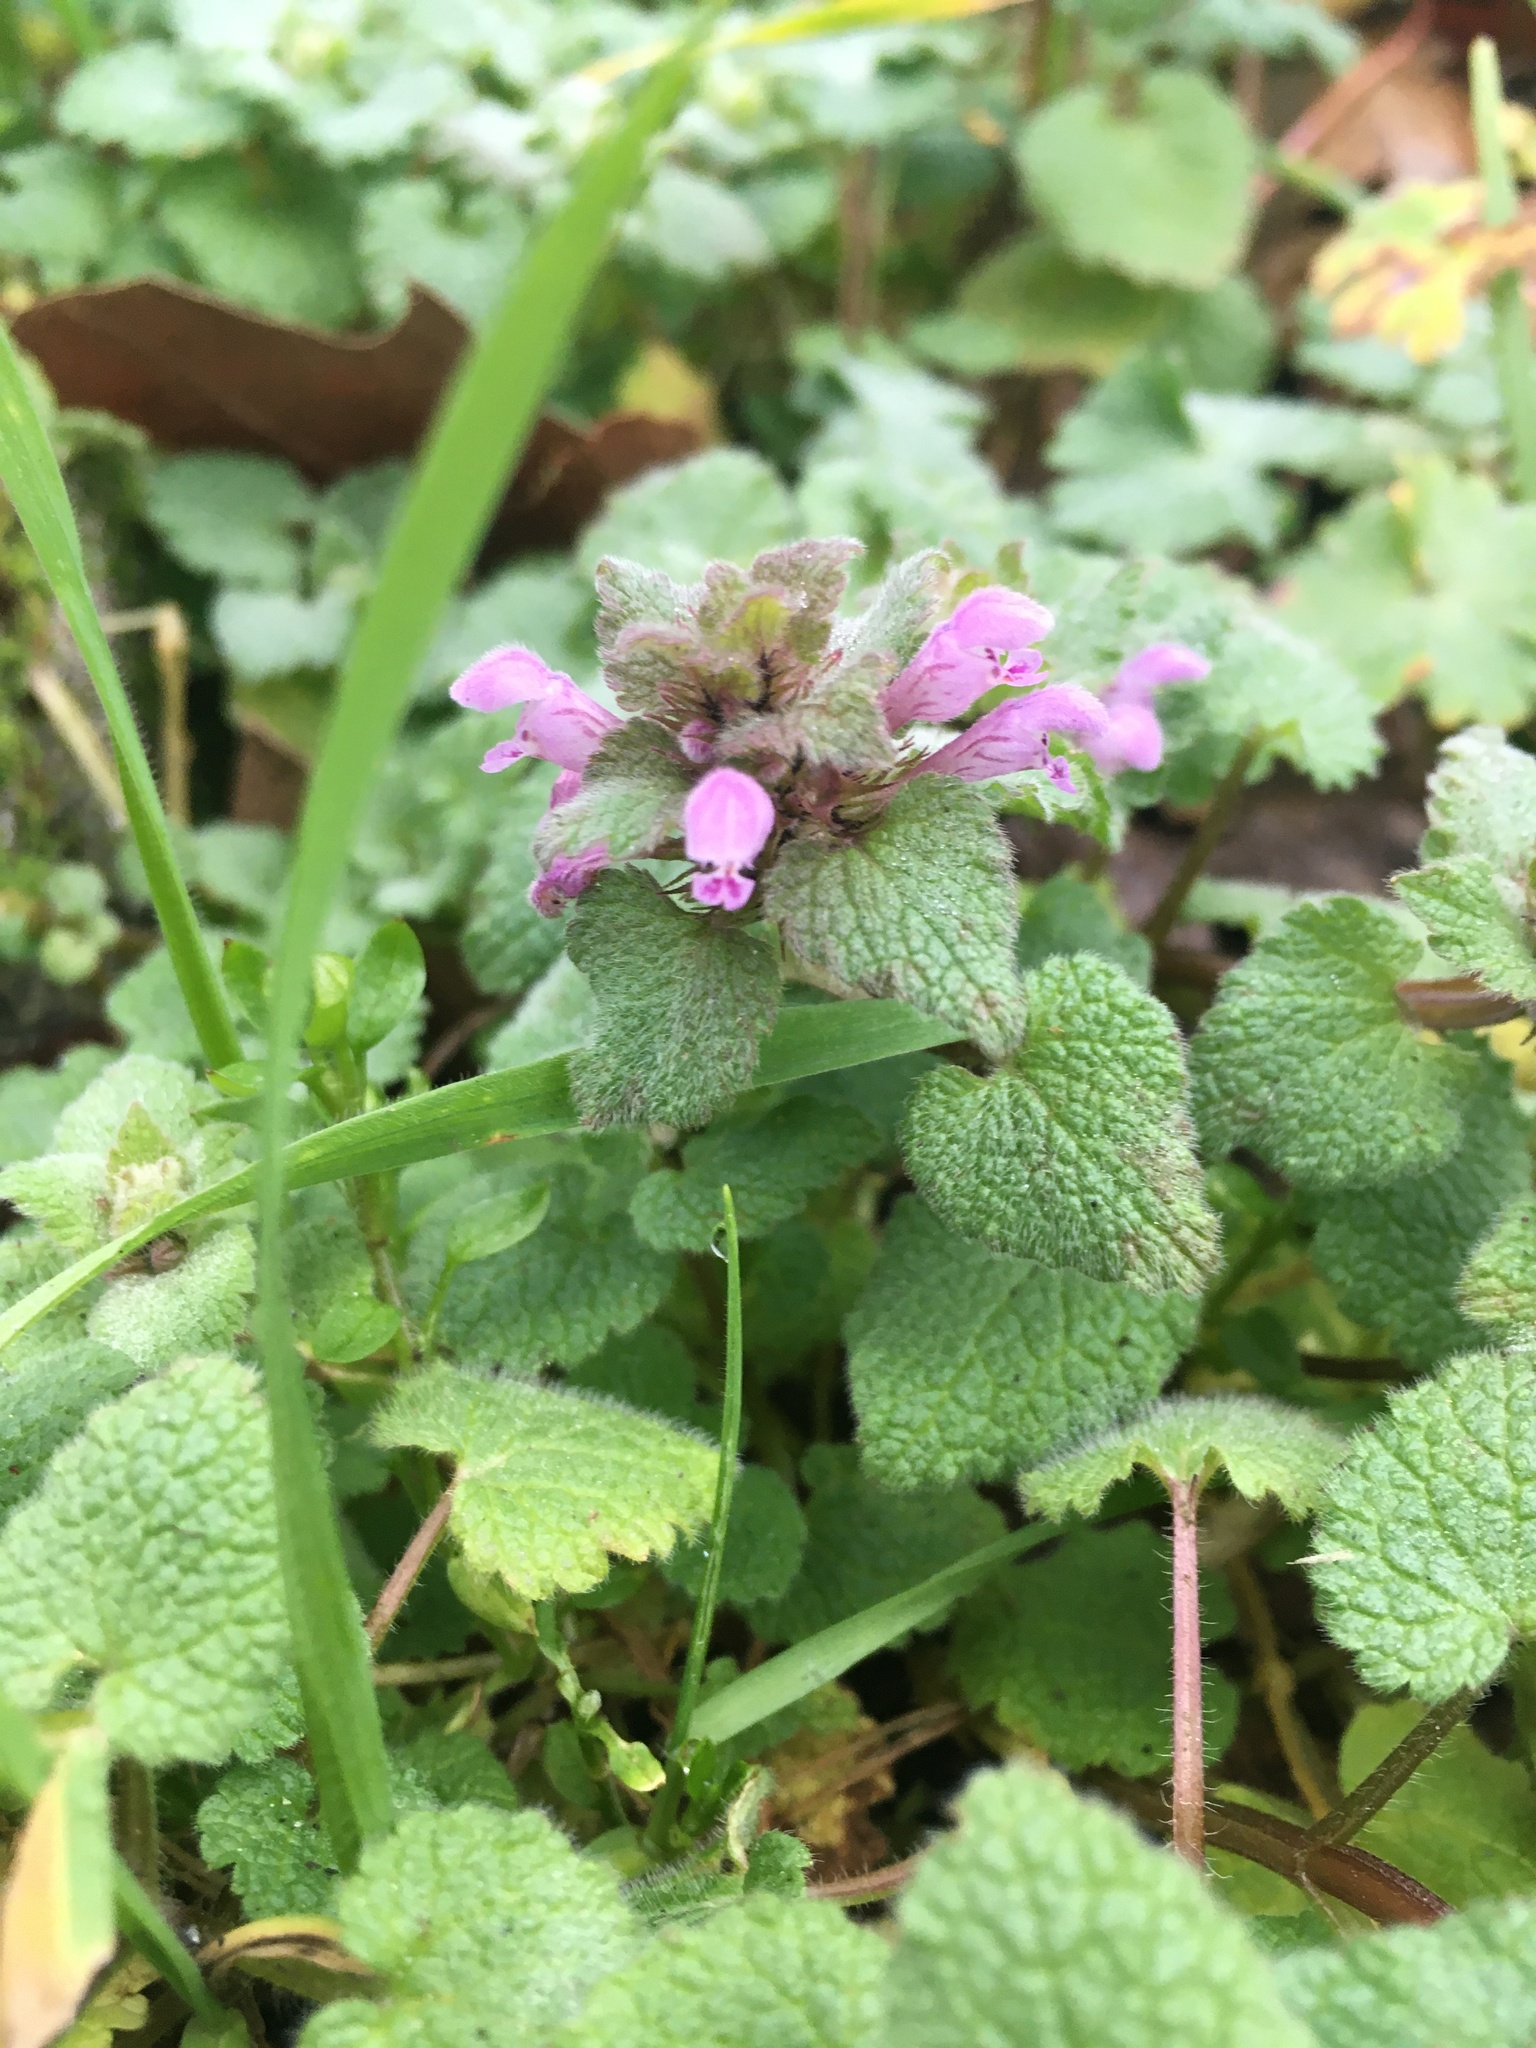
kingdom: Plantae
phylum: Tracheophyta
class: Magnoliopsida
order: Lamiales
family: Lamiaceae
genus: Lamium
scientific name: Lamium purpureum
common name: Red dead-nettle
